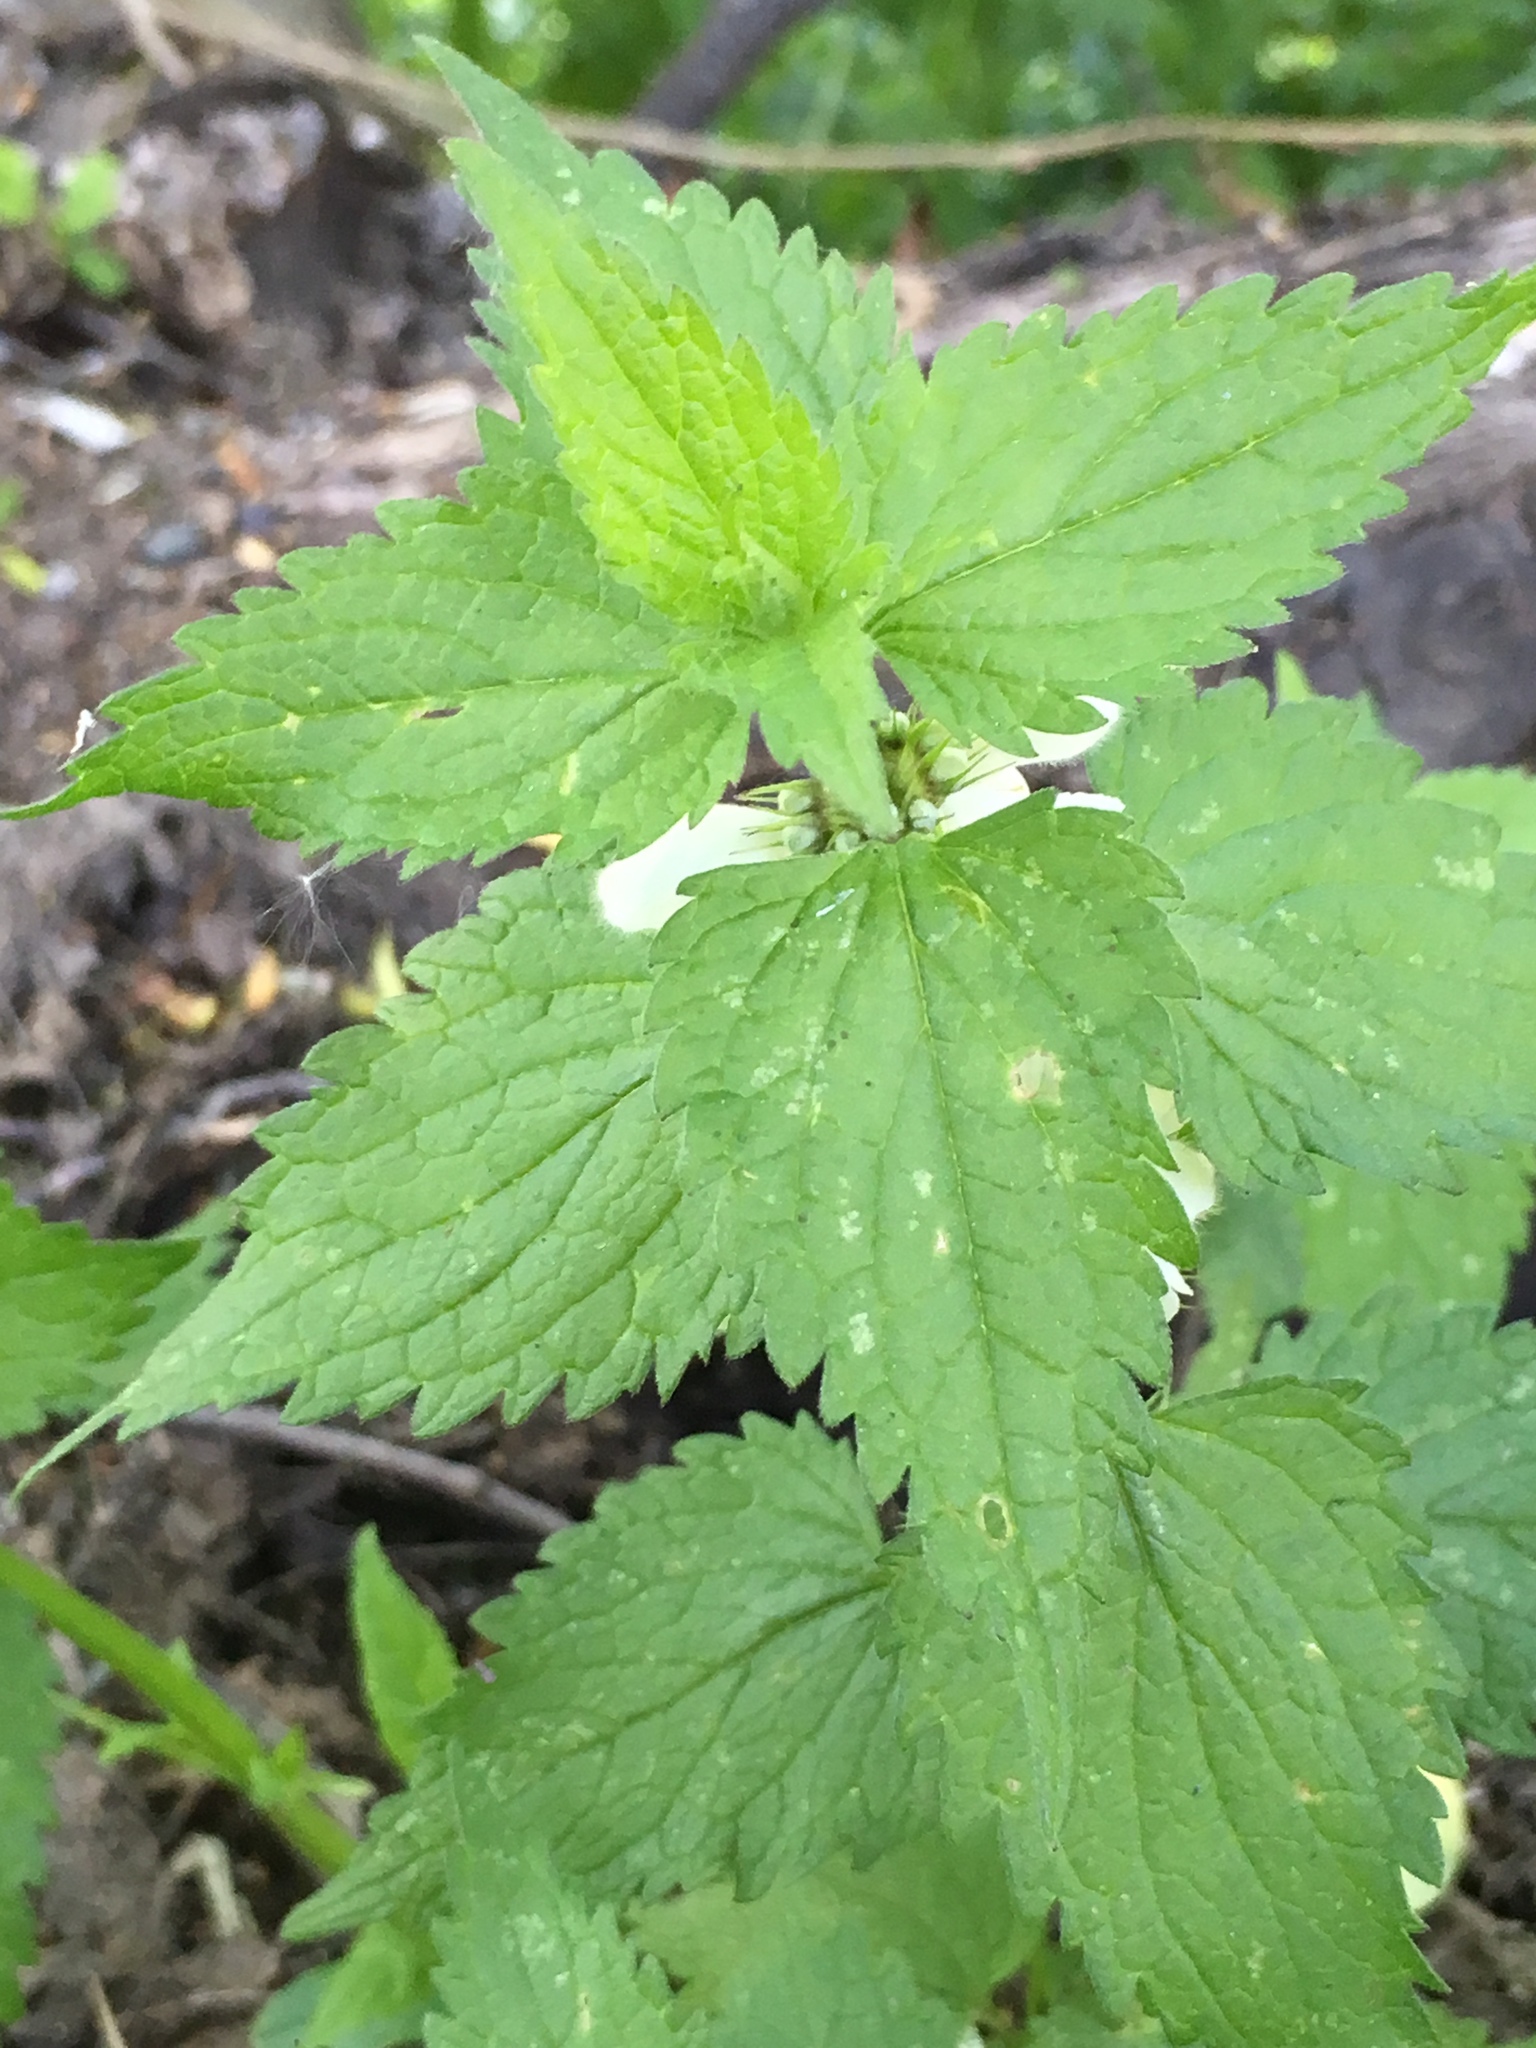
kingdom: Plantae
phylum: Tracheophyta
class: Magnoliopsida
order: Lamiales
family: Lamiaceae
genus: Lamium
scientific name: Lamium album
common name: White dead-nettle
